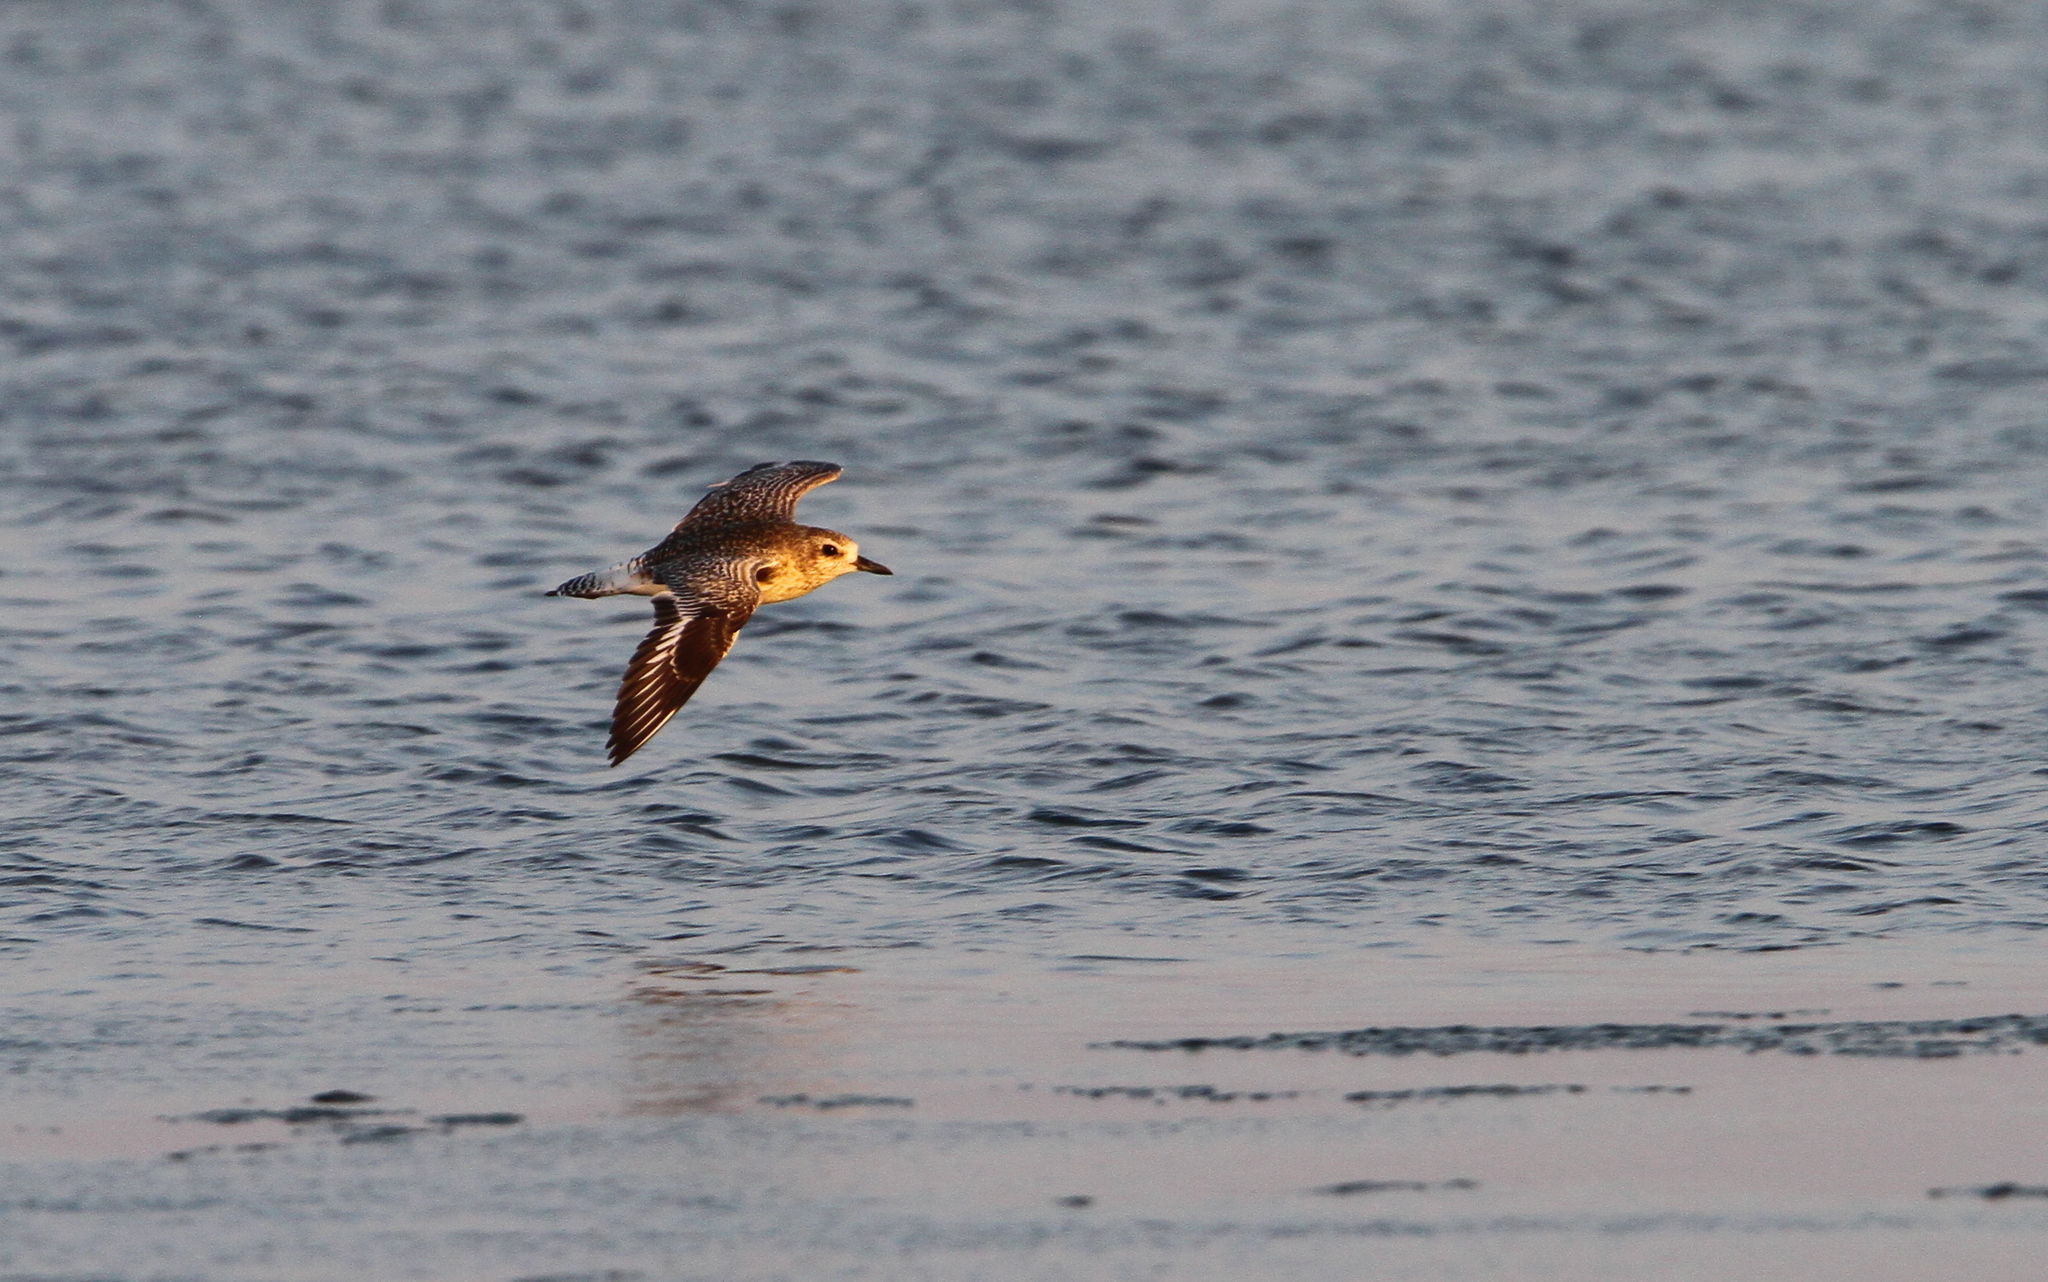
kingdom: Animalia
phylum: Chordata
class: Aves
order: Charadriiformes
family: Charadriidae
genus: Pluvialis
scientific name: Pluvialis squatarola
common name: Grey plover
